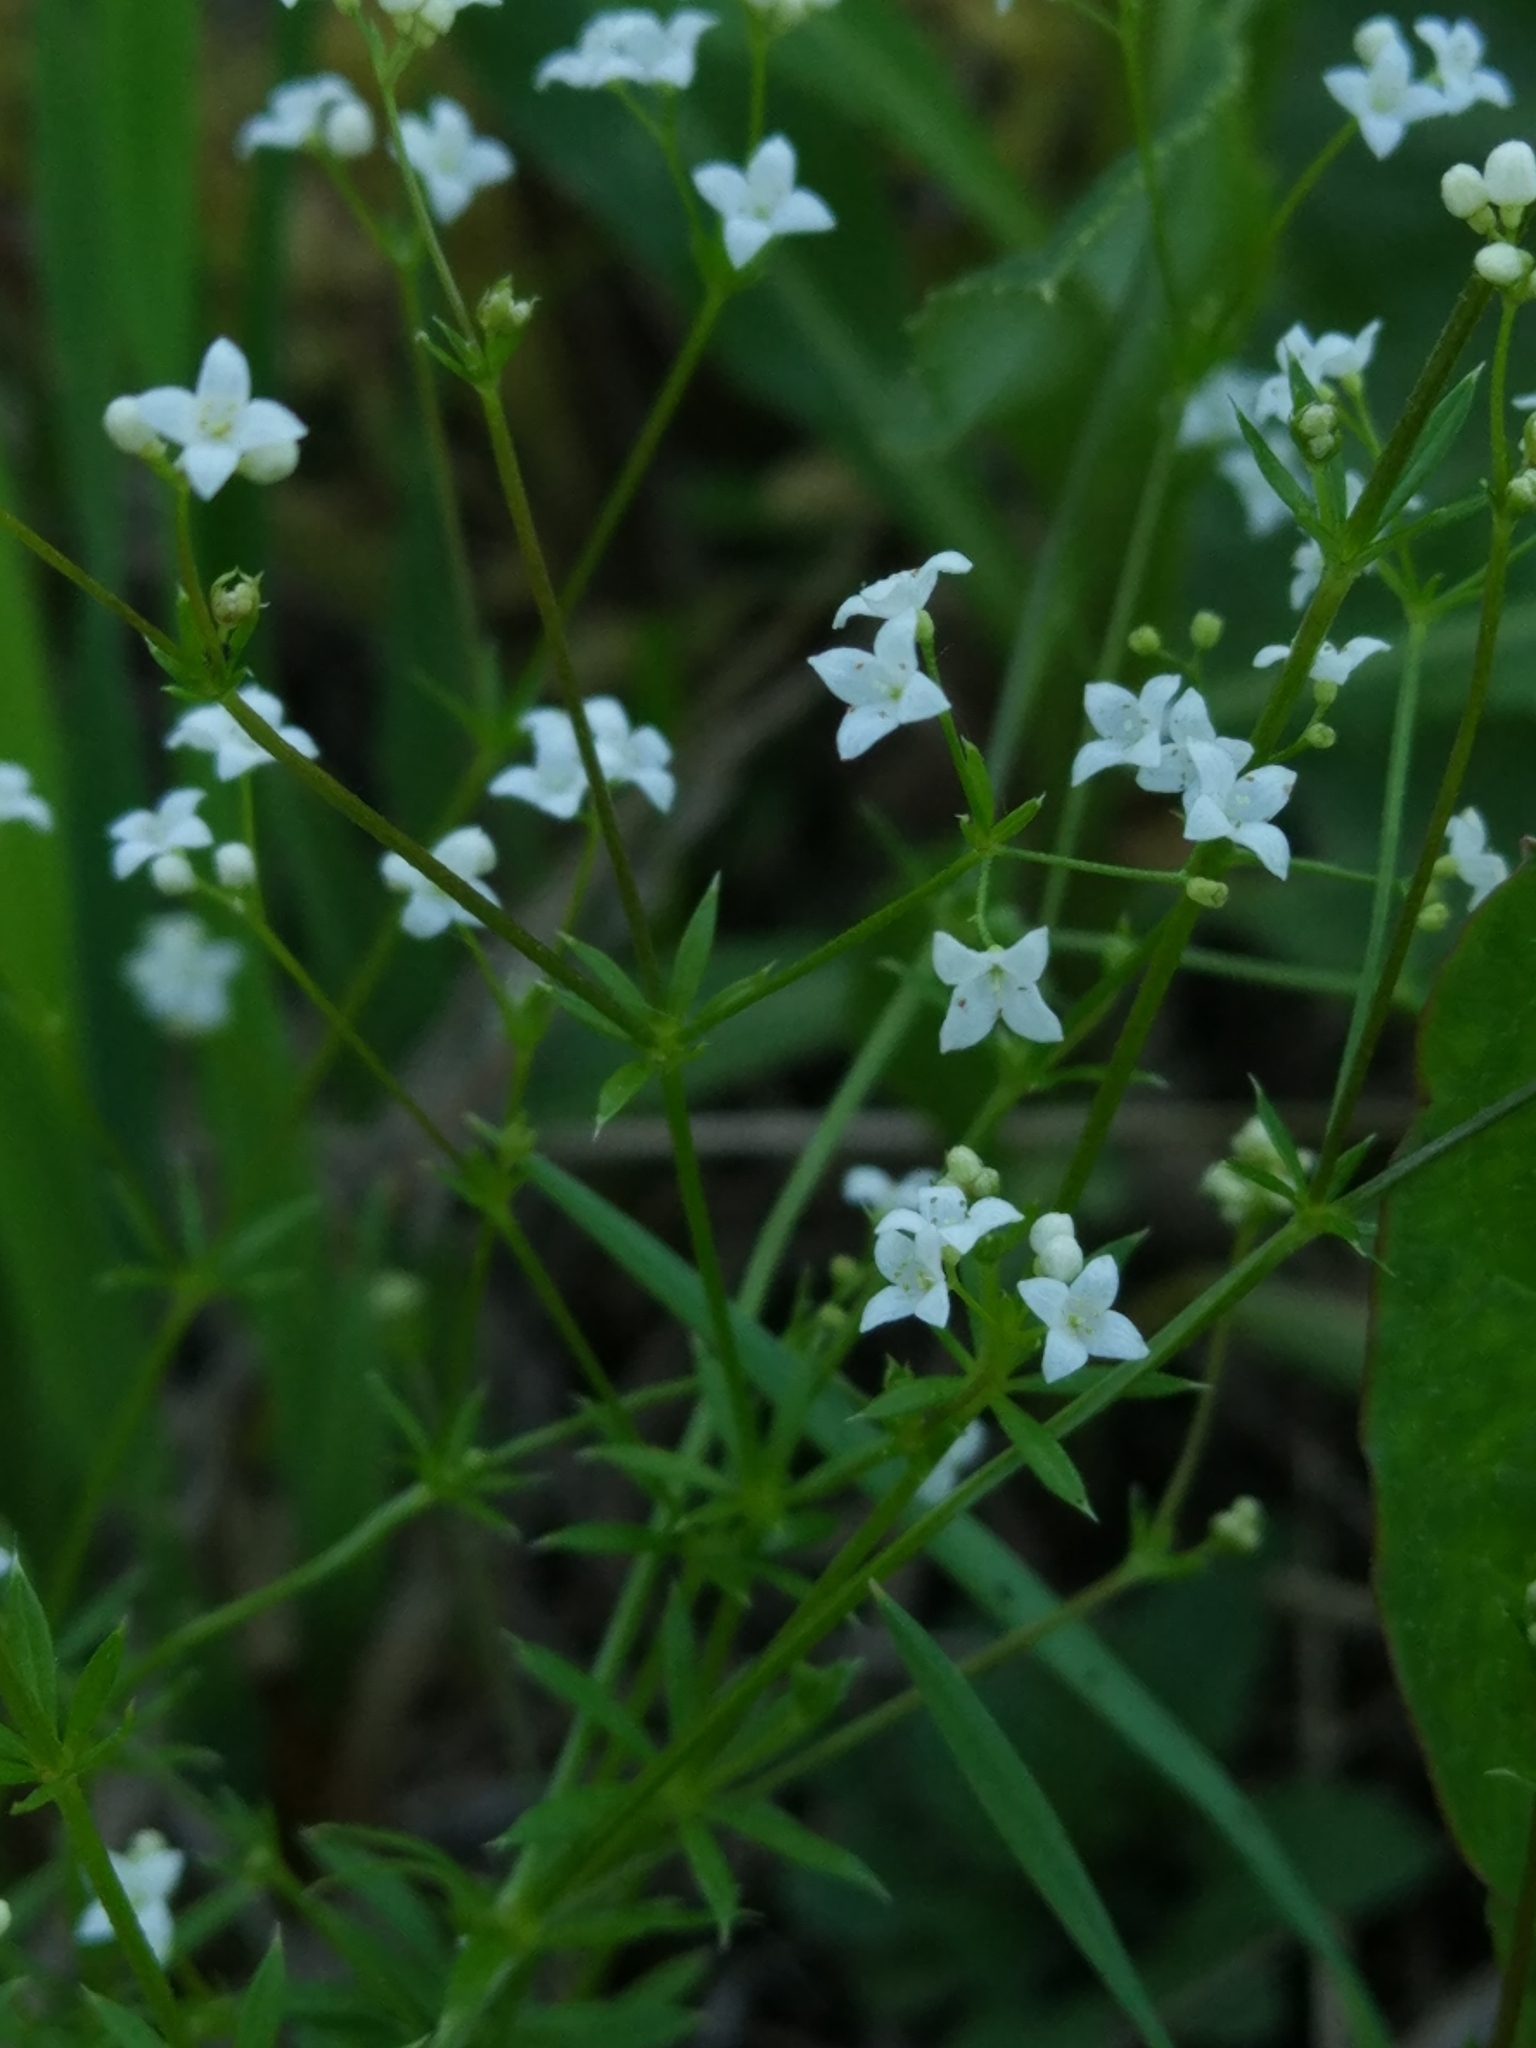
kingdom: Plantae
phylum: Tracheophyta
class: Magnoliopsida
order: Gentianales
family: Rubiaceae
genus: Galium
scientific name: Galium uliginosum
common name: Fen bedstraw
